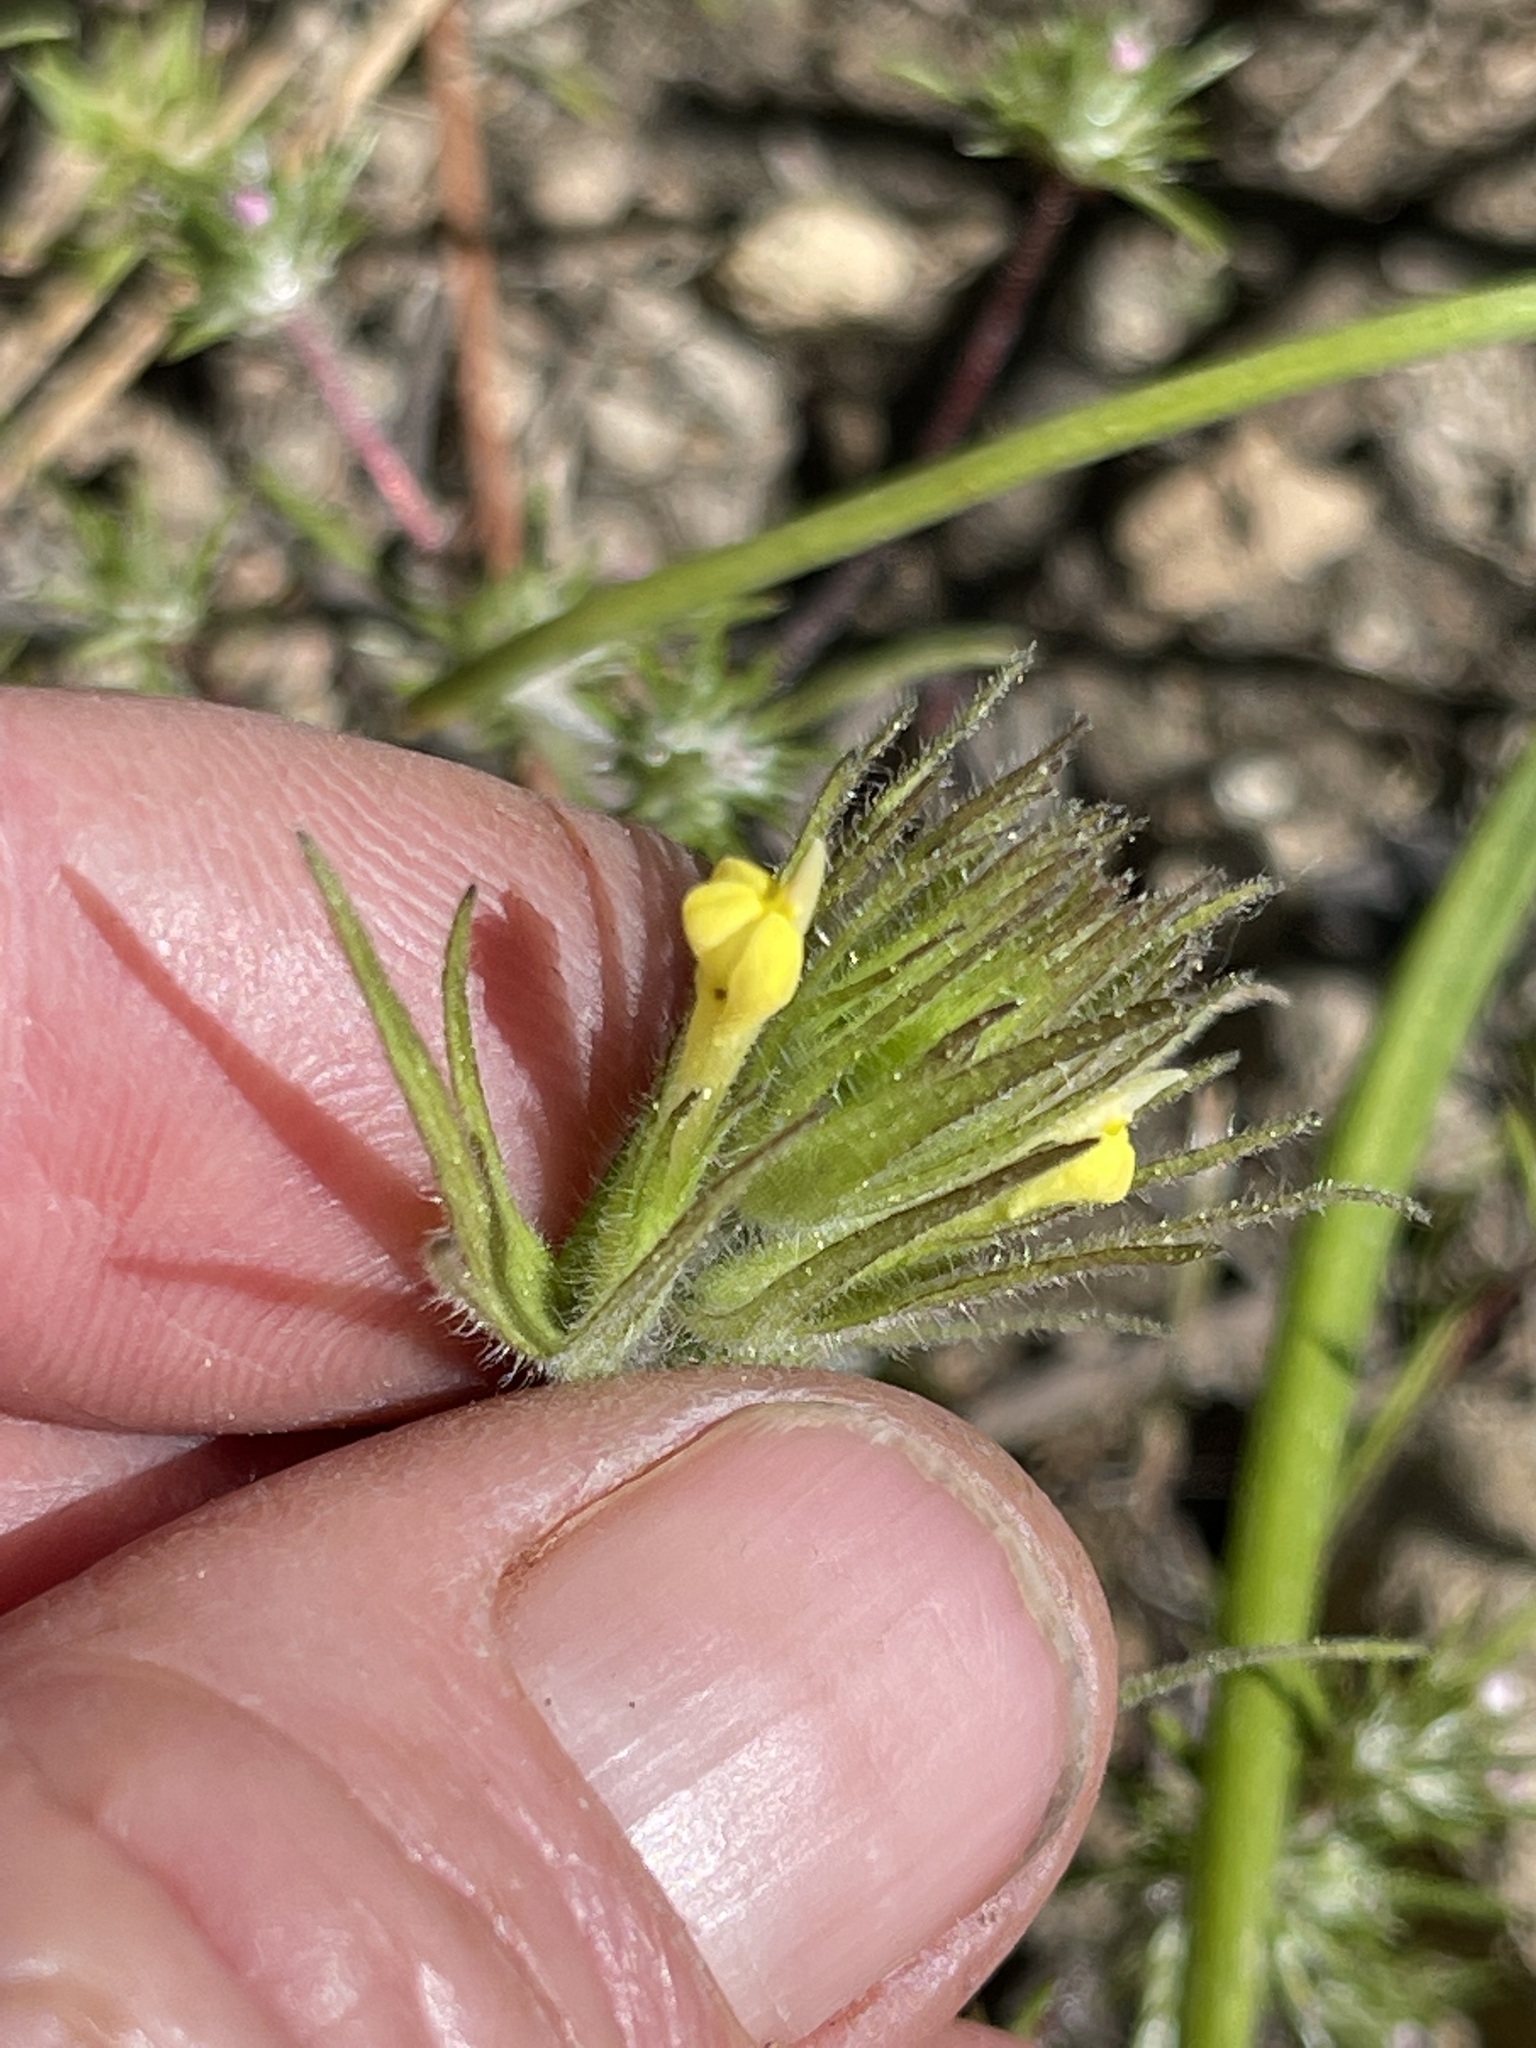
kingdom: Plantae
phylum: Tracheophyta
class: Magnoliopsida
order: Lamiales
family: Orobanchaceae
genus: Castilleja
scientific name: Castilleja tenuis
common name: Hairy indian paintbrush
